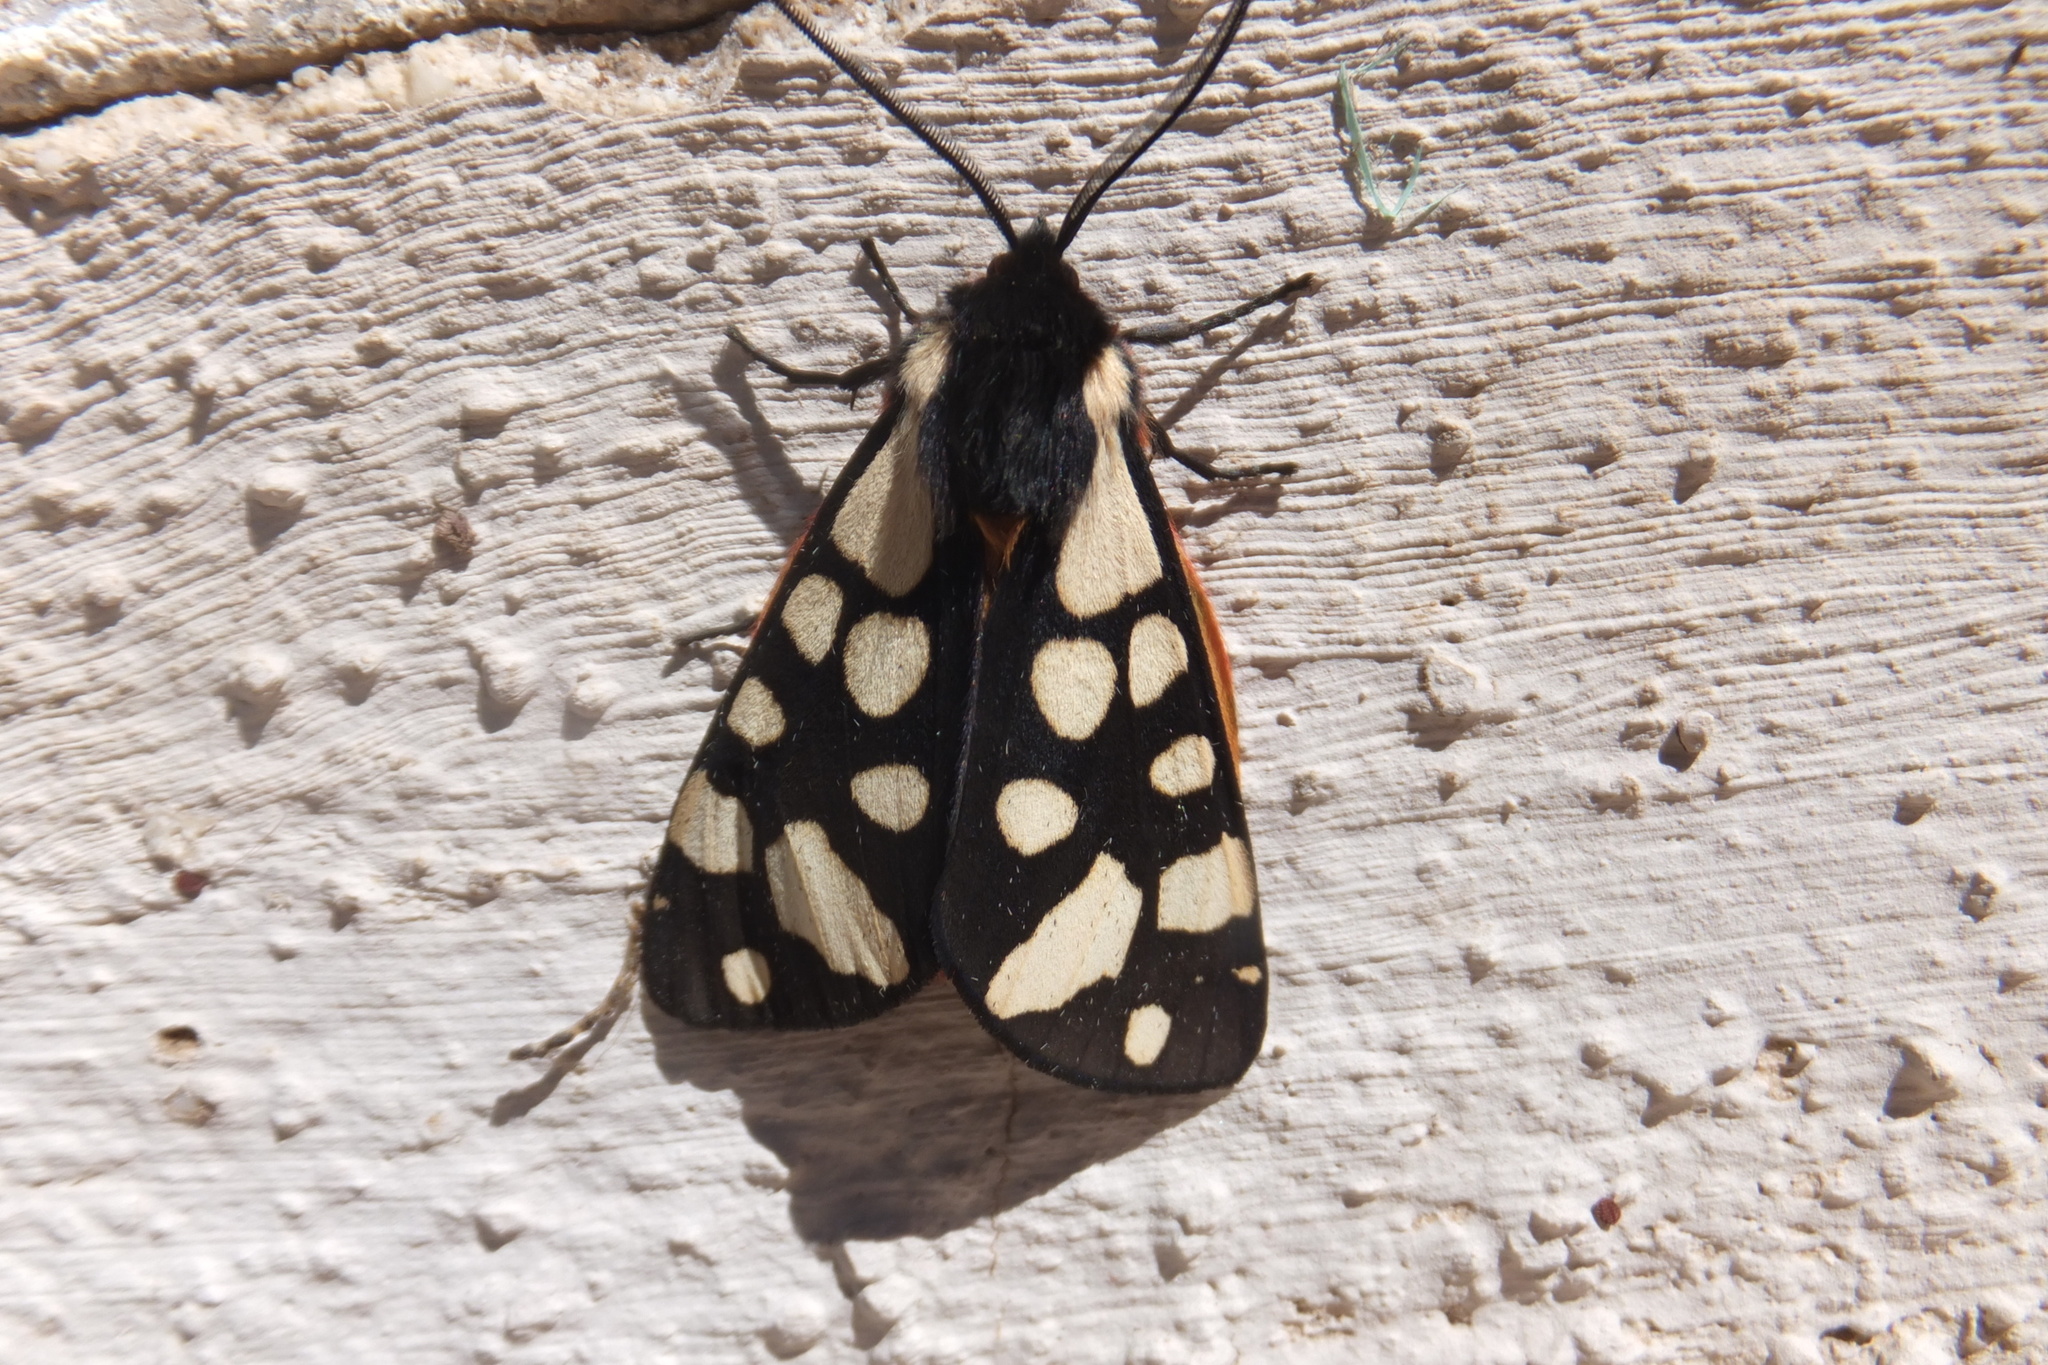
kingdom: Animalia
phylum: Arthropoda
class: Insecta
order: Lepidoptera
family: Erebidae
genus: Epicallia
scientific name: Epicallia villica
